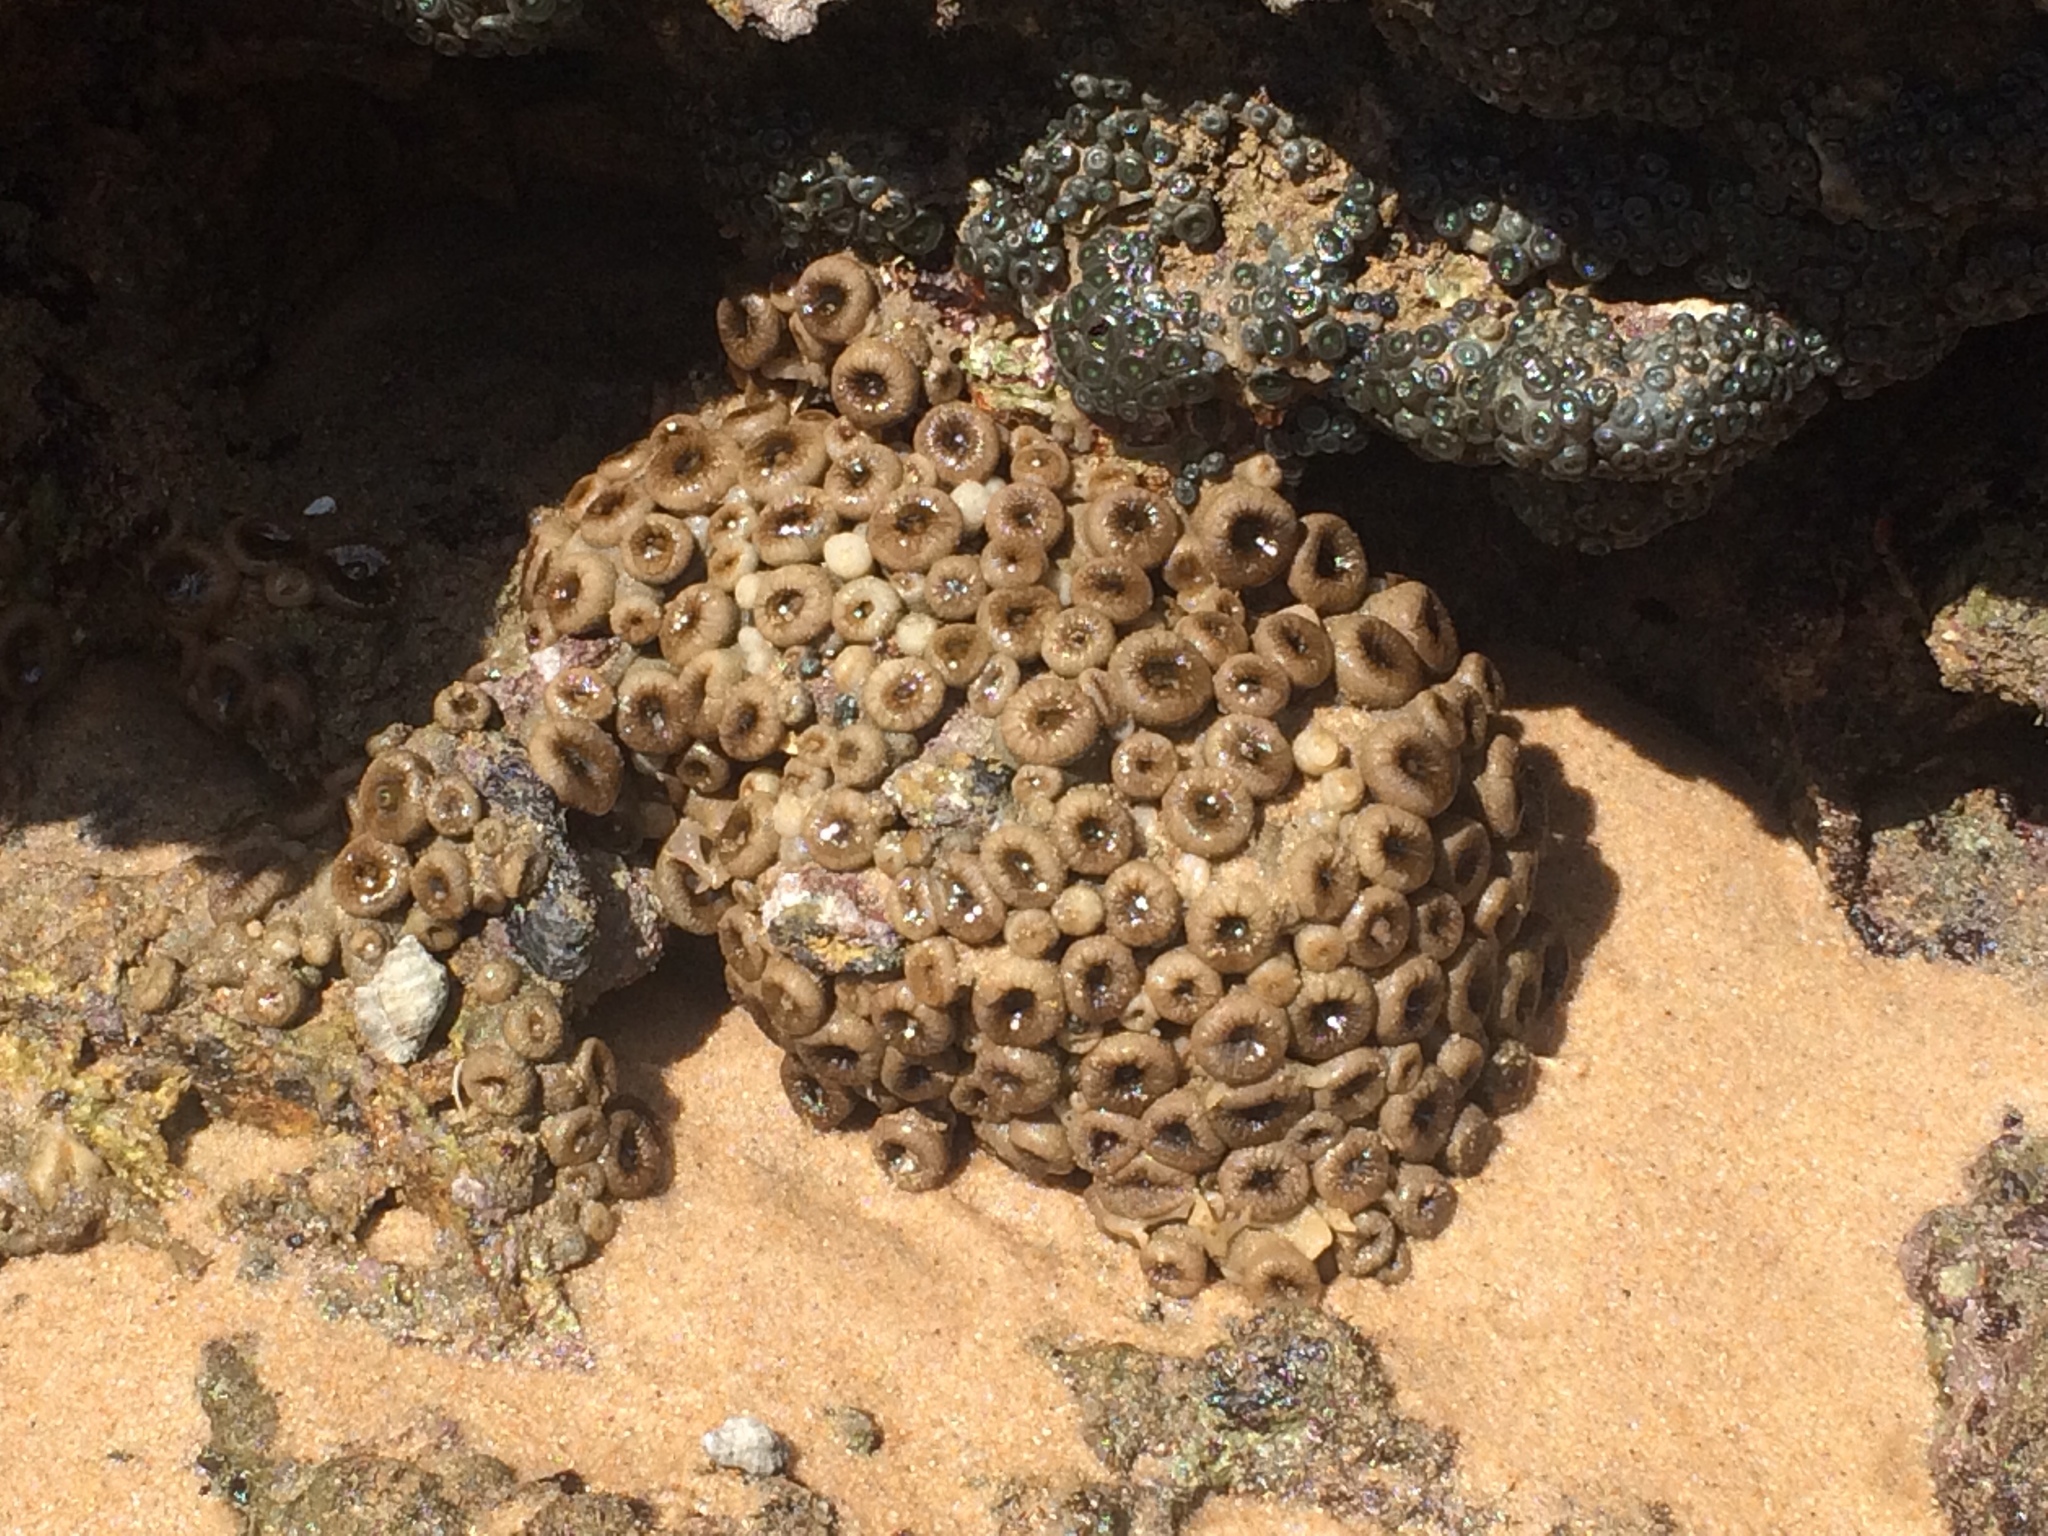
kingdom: Animalia
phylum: Cnidaria
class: Anthozoa
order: Zoantharia
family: Sphenopidae
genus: Palythoa
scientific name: Palythoa grandiflora
